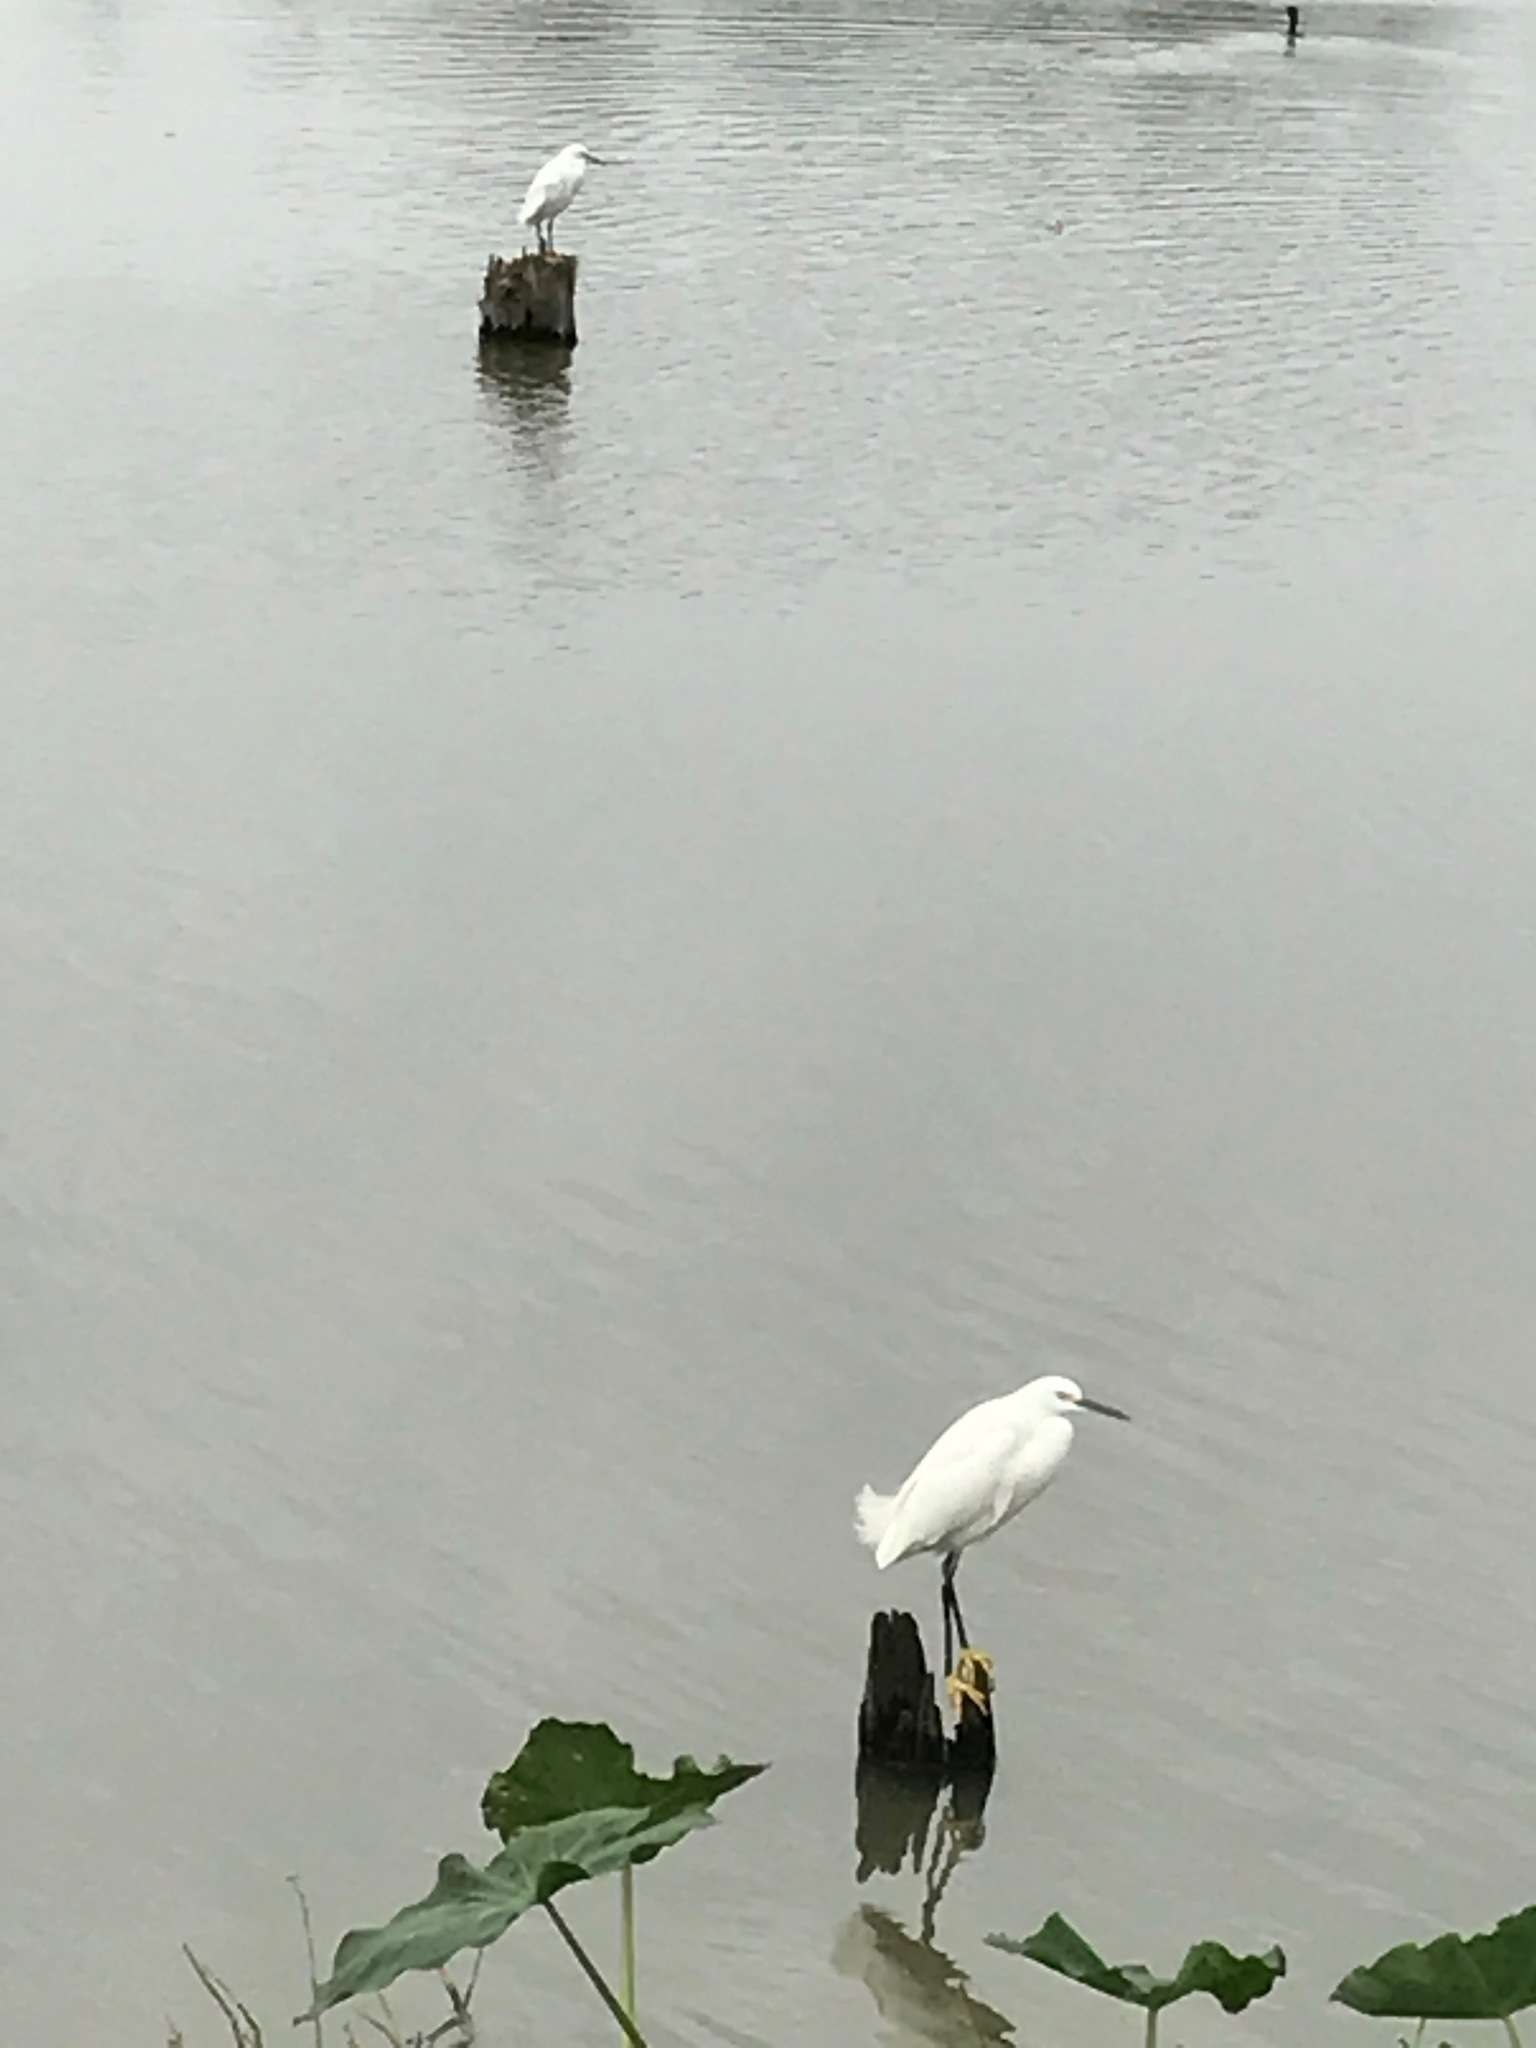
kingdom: Animalia
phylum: Chordata
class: Aves
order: Pelecaniformes
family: Ardeidae
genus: Egretta
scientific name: Egretta thula
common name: Snowy egret
